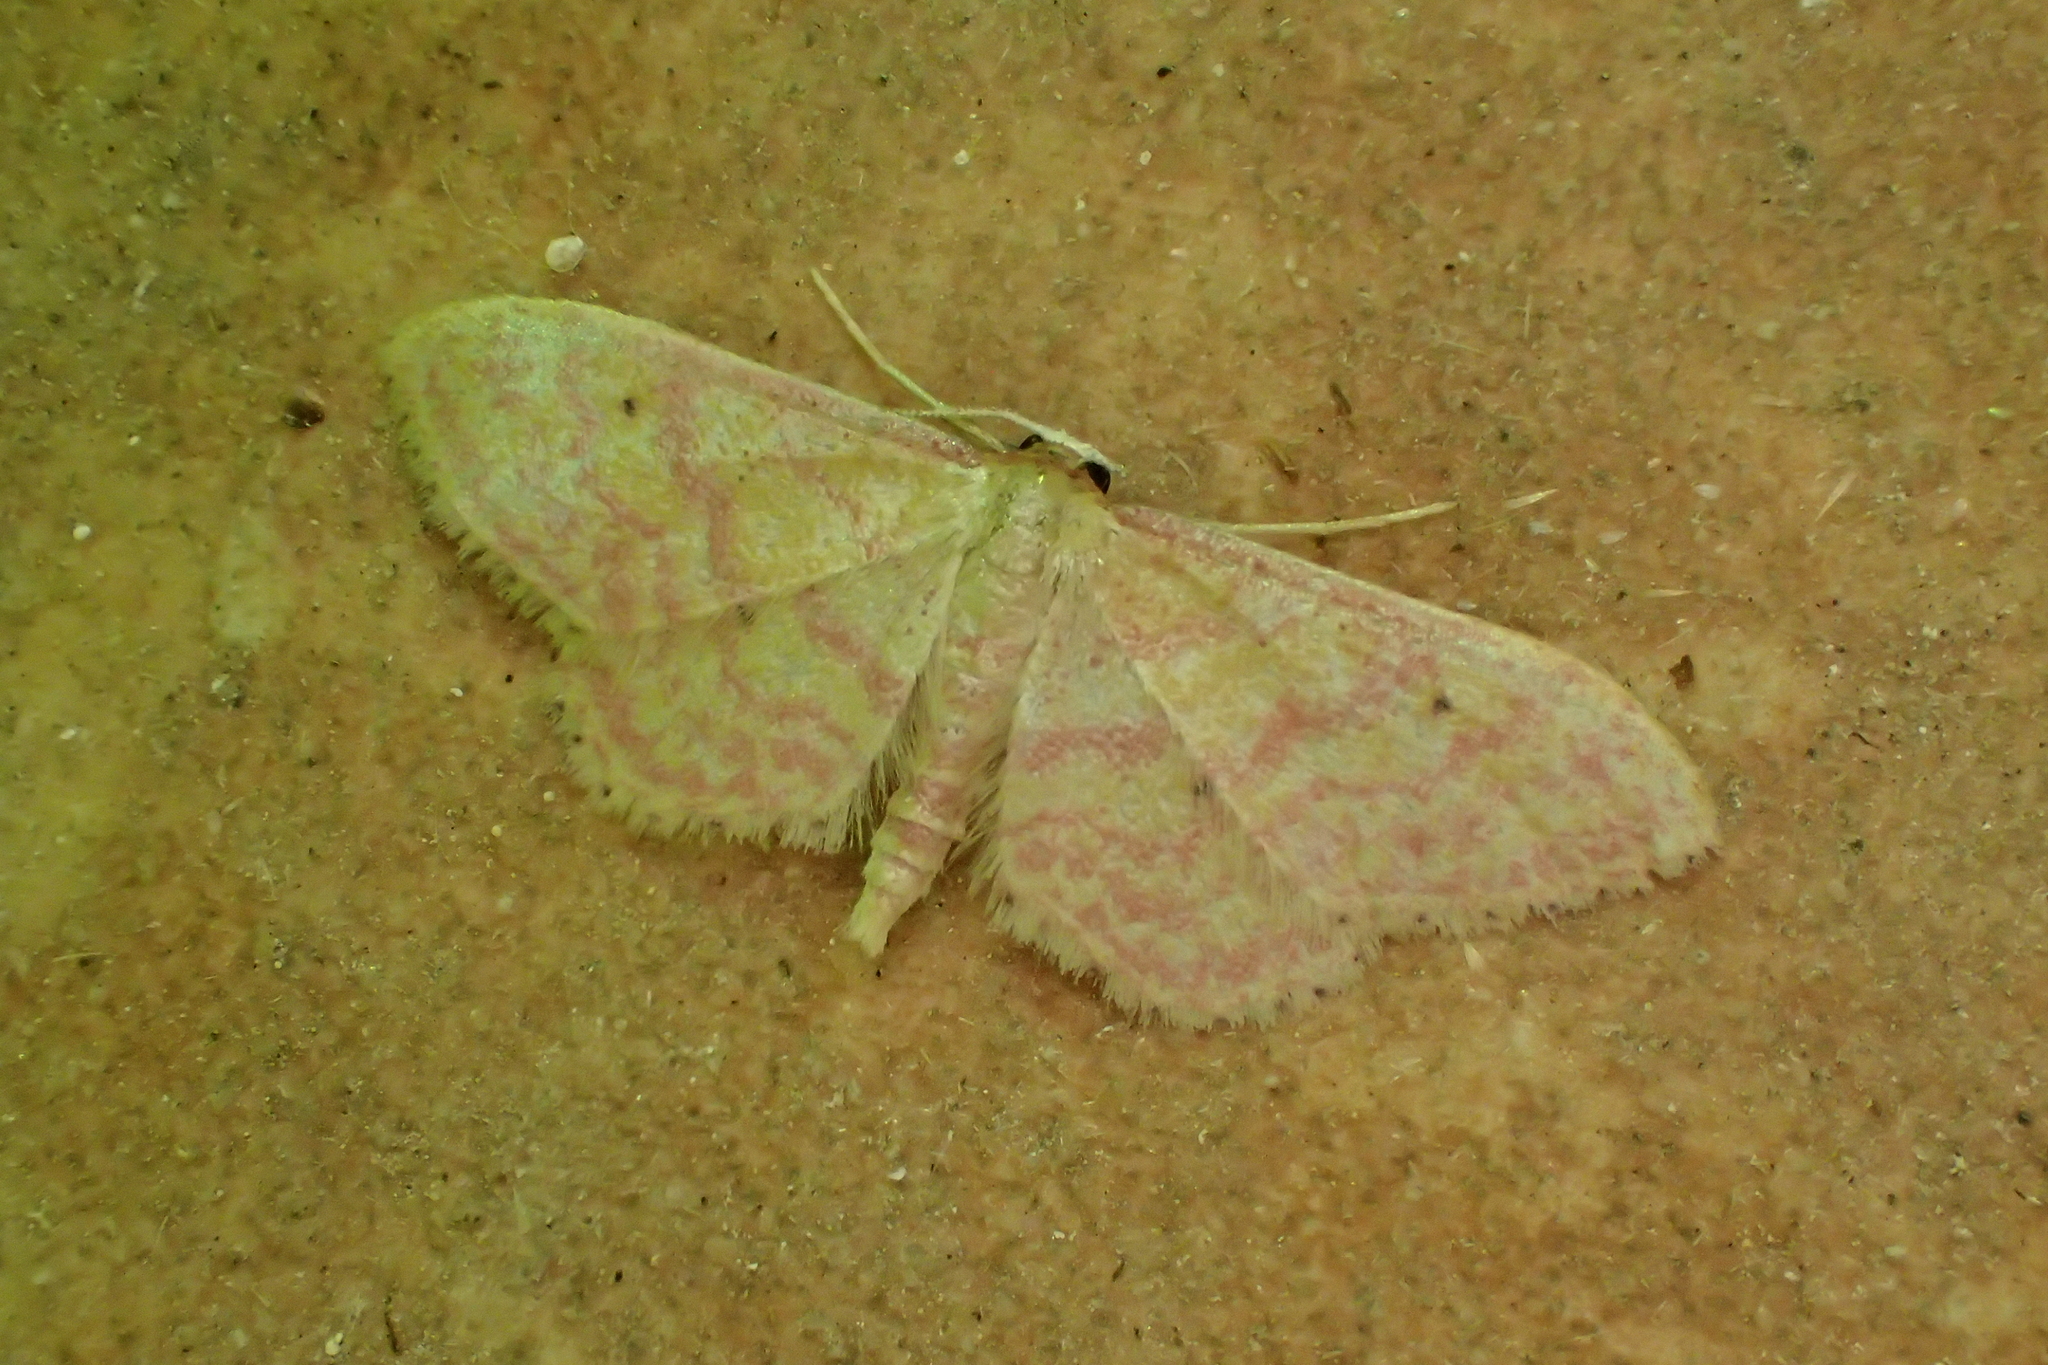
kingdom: Animalia
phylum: Arthropoda
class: Insecta
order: Lepidoptera
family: Geometridae
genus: Idaea
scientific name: Idaea rhodogrammaria
